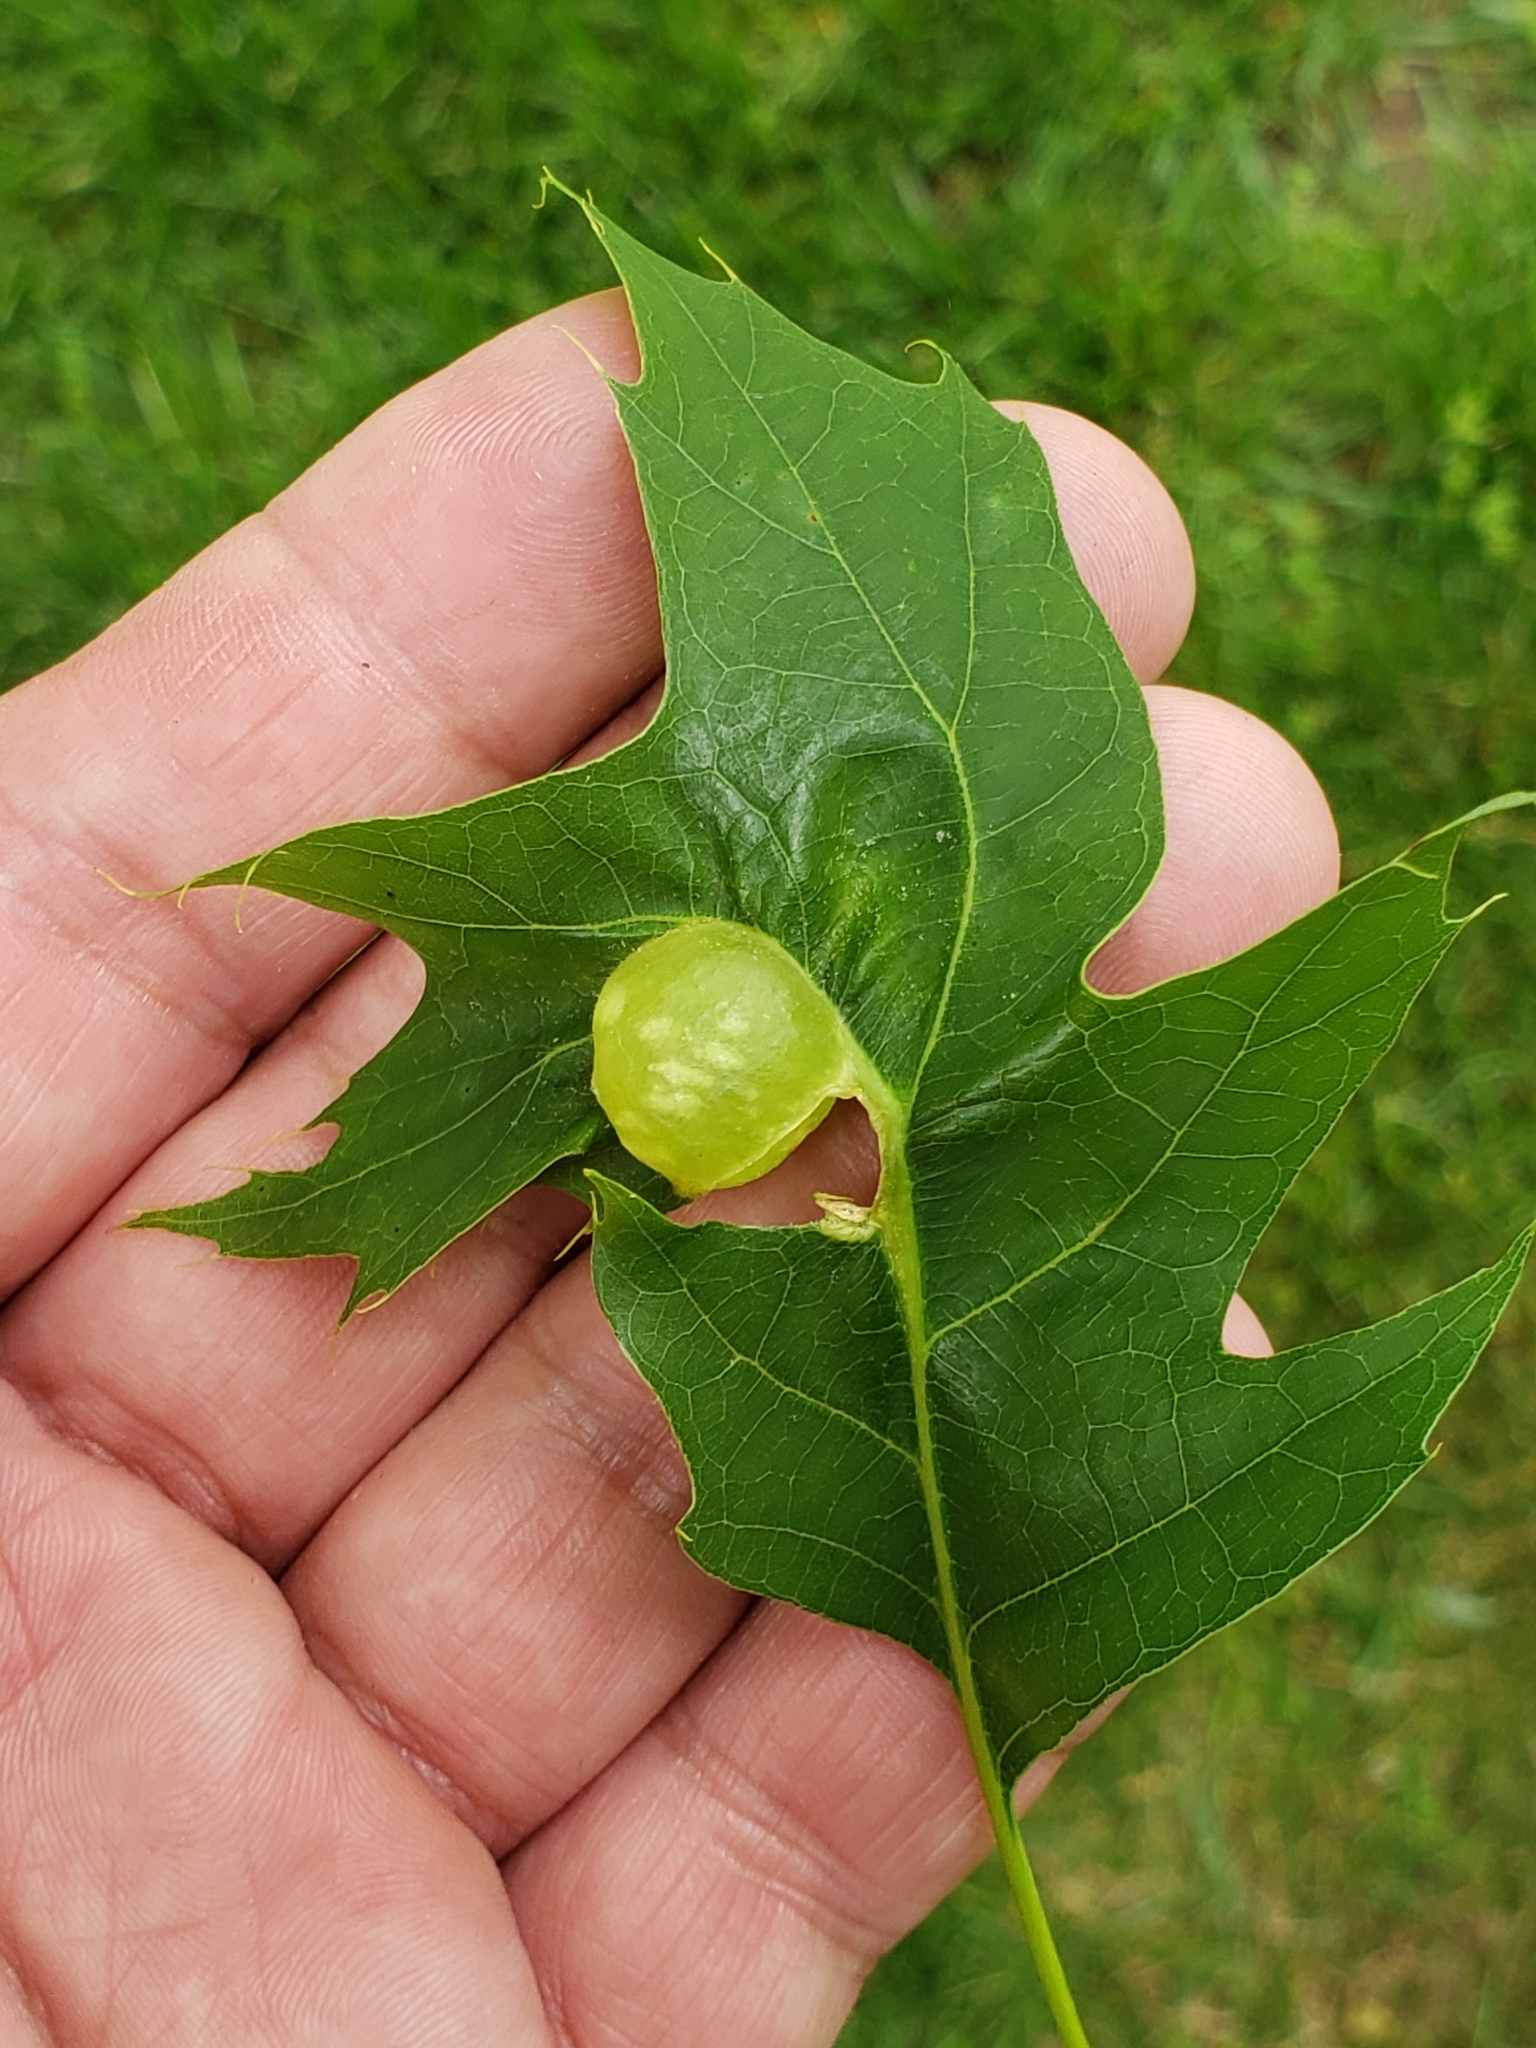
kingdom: Animalia
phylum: Arthropoda
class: Insecta
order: Hymenoptera
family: Cynipidae
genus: Dryocosmus
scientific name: Dryocosmus quercuspalustris
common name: Succulent oak gall wasp
